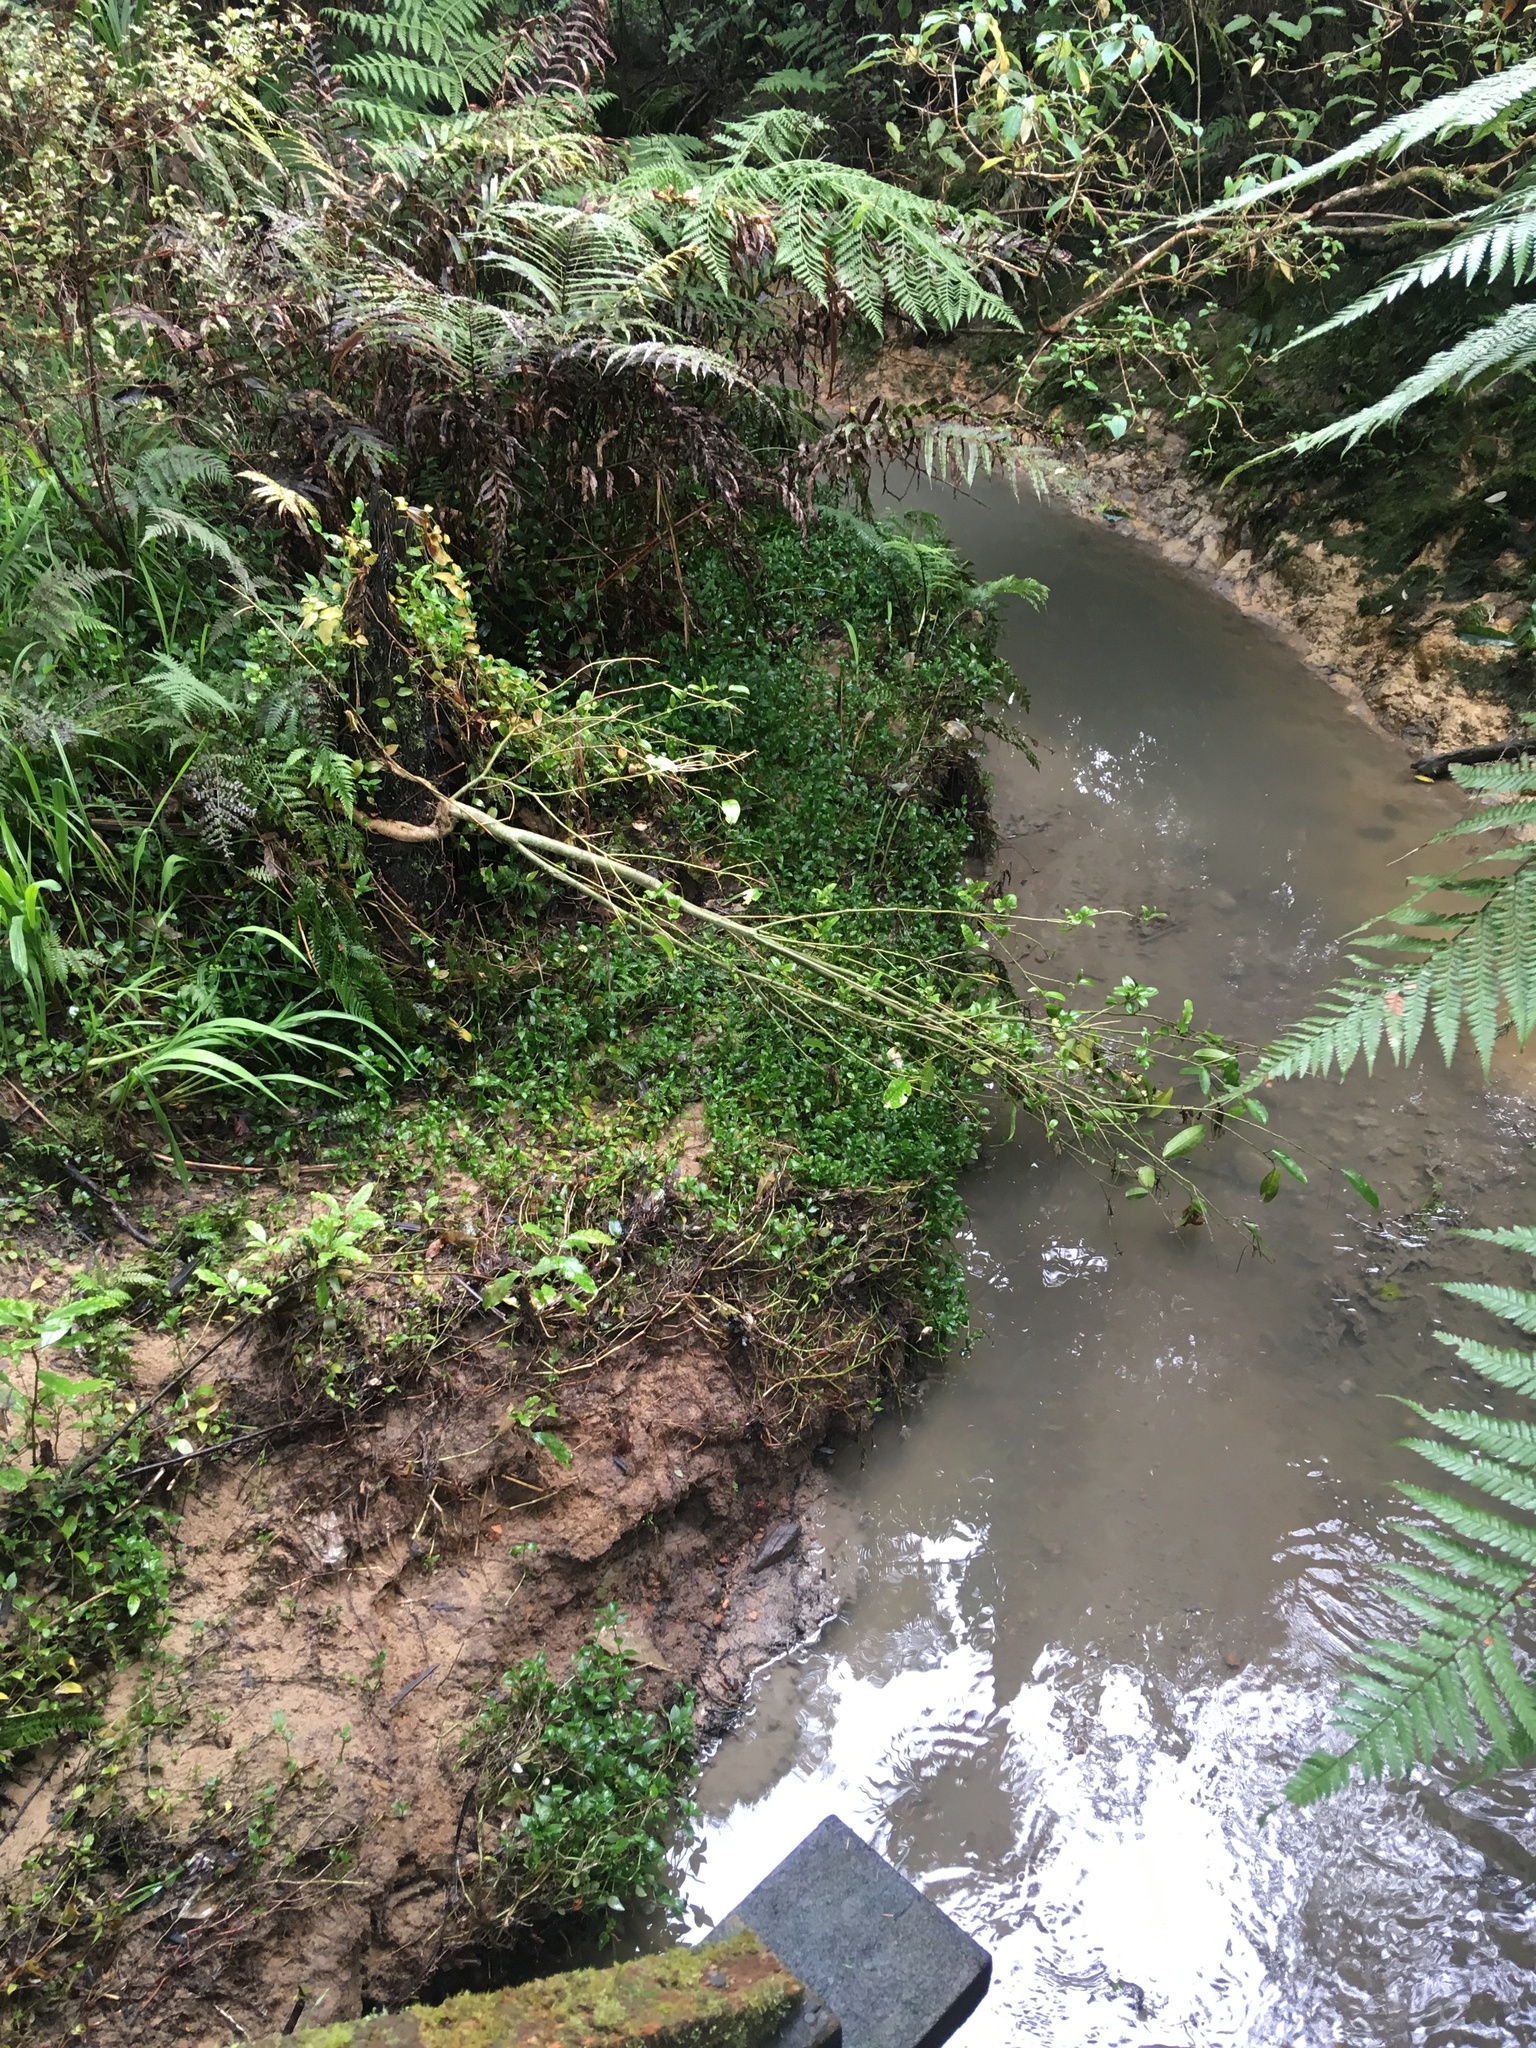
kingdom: Plantae
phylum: Tracheophyta
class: Magnoliopsida
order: Gentianales
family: Rubiaceae
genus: Coprosma
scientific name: Coprosma autumnalis
